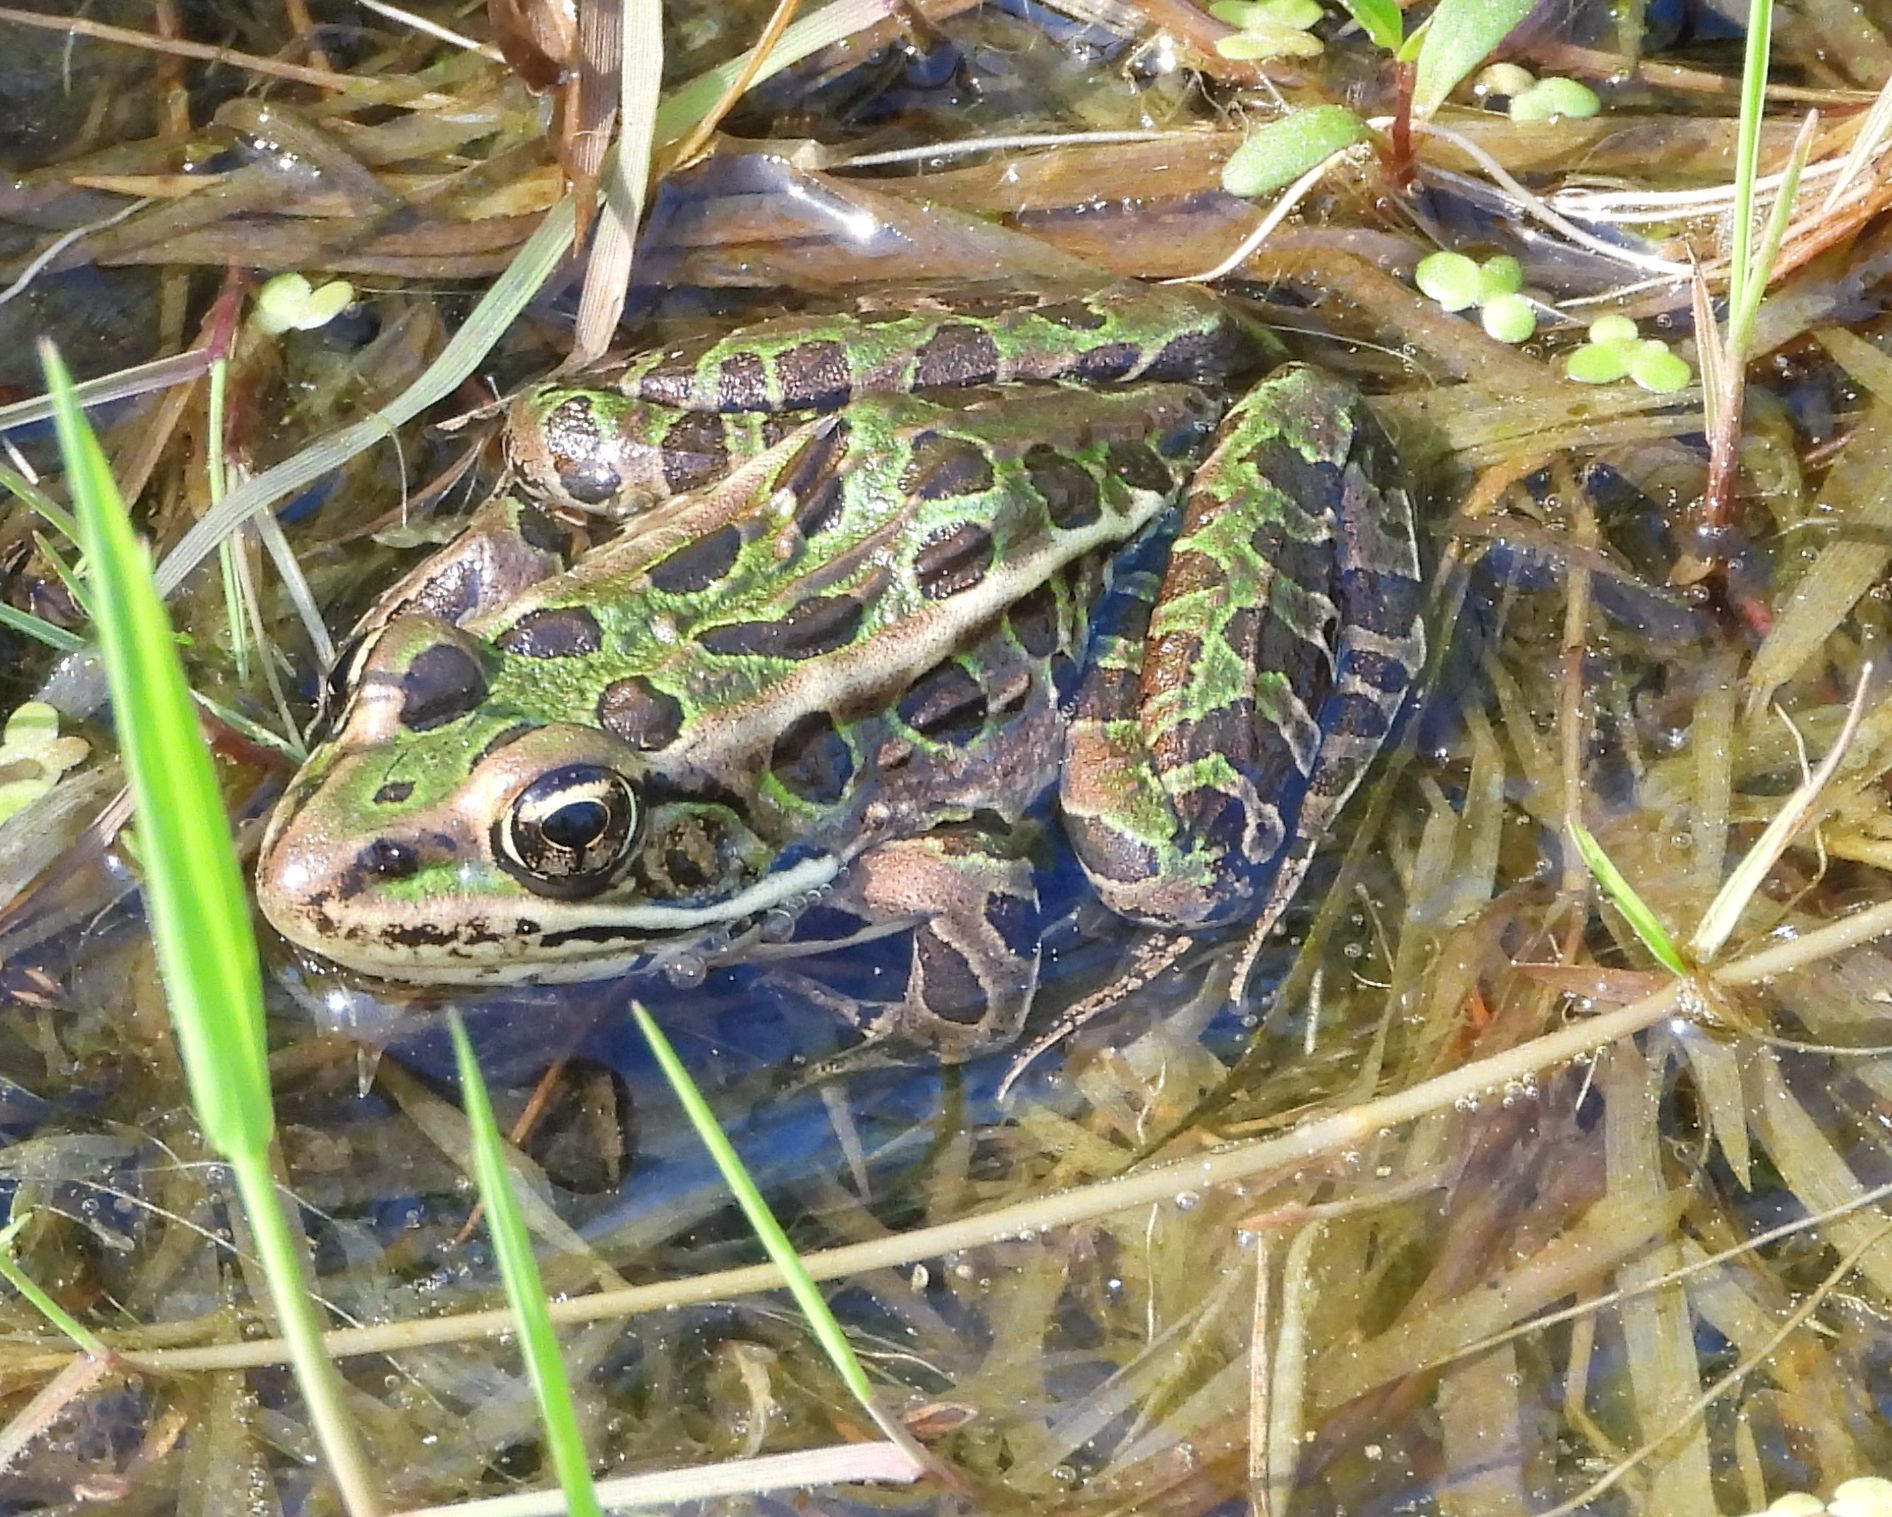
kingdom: Animalia
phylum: Chordata
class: Amphibia
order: Anura
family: Ranidae
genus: Lithobates
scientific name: Lithobates pipiens
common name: Northern leopard frog
